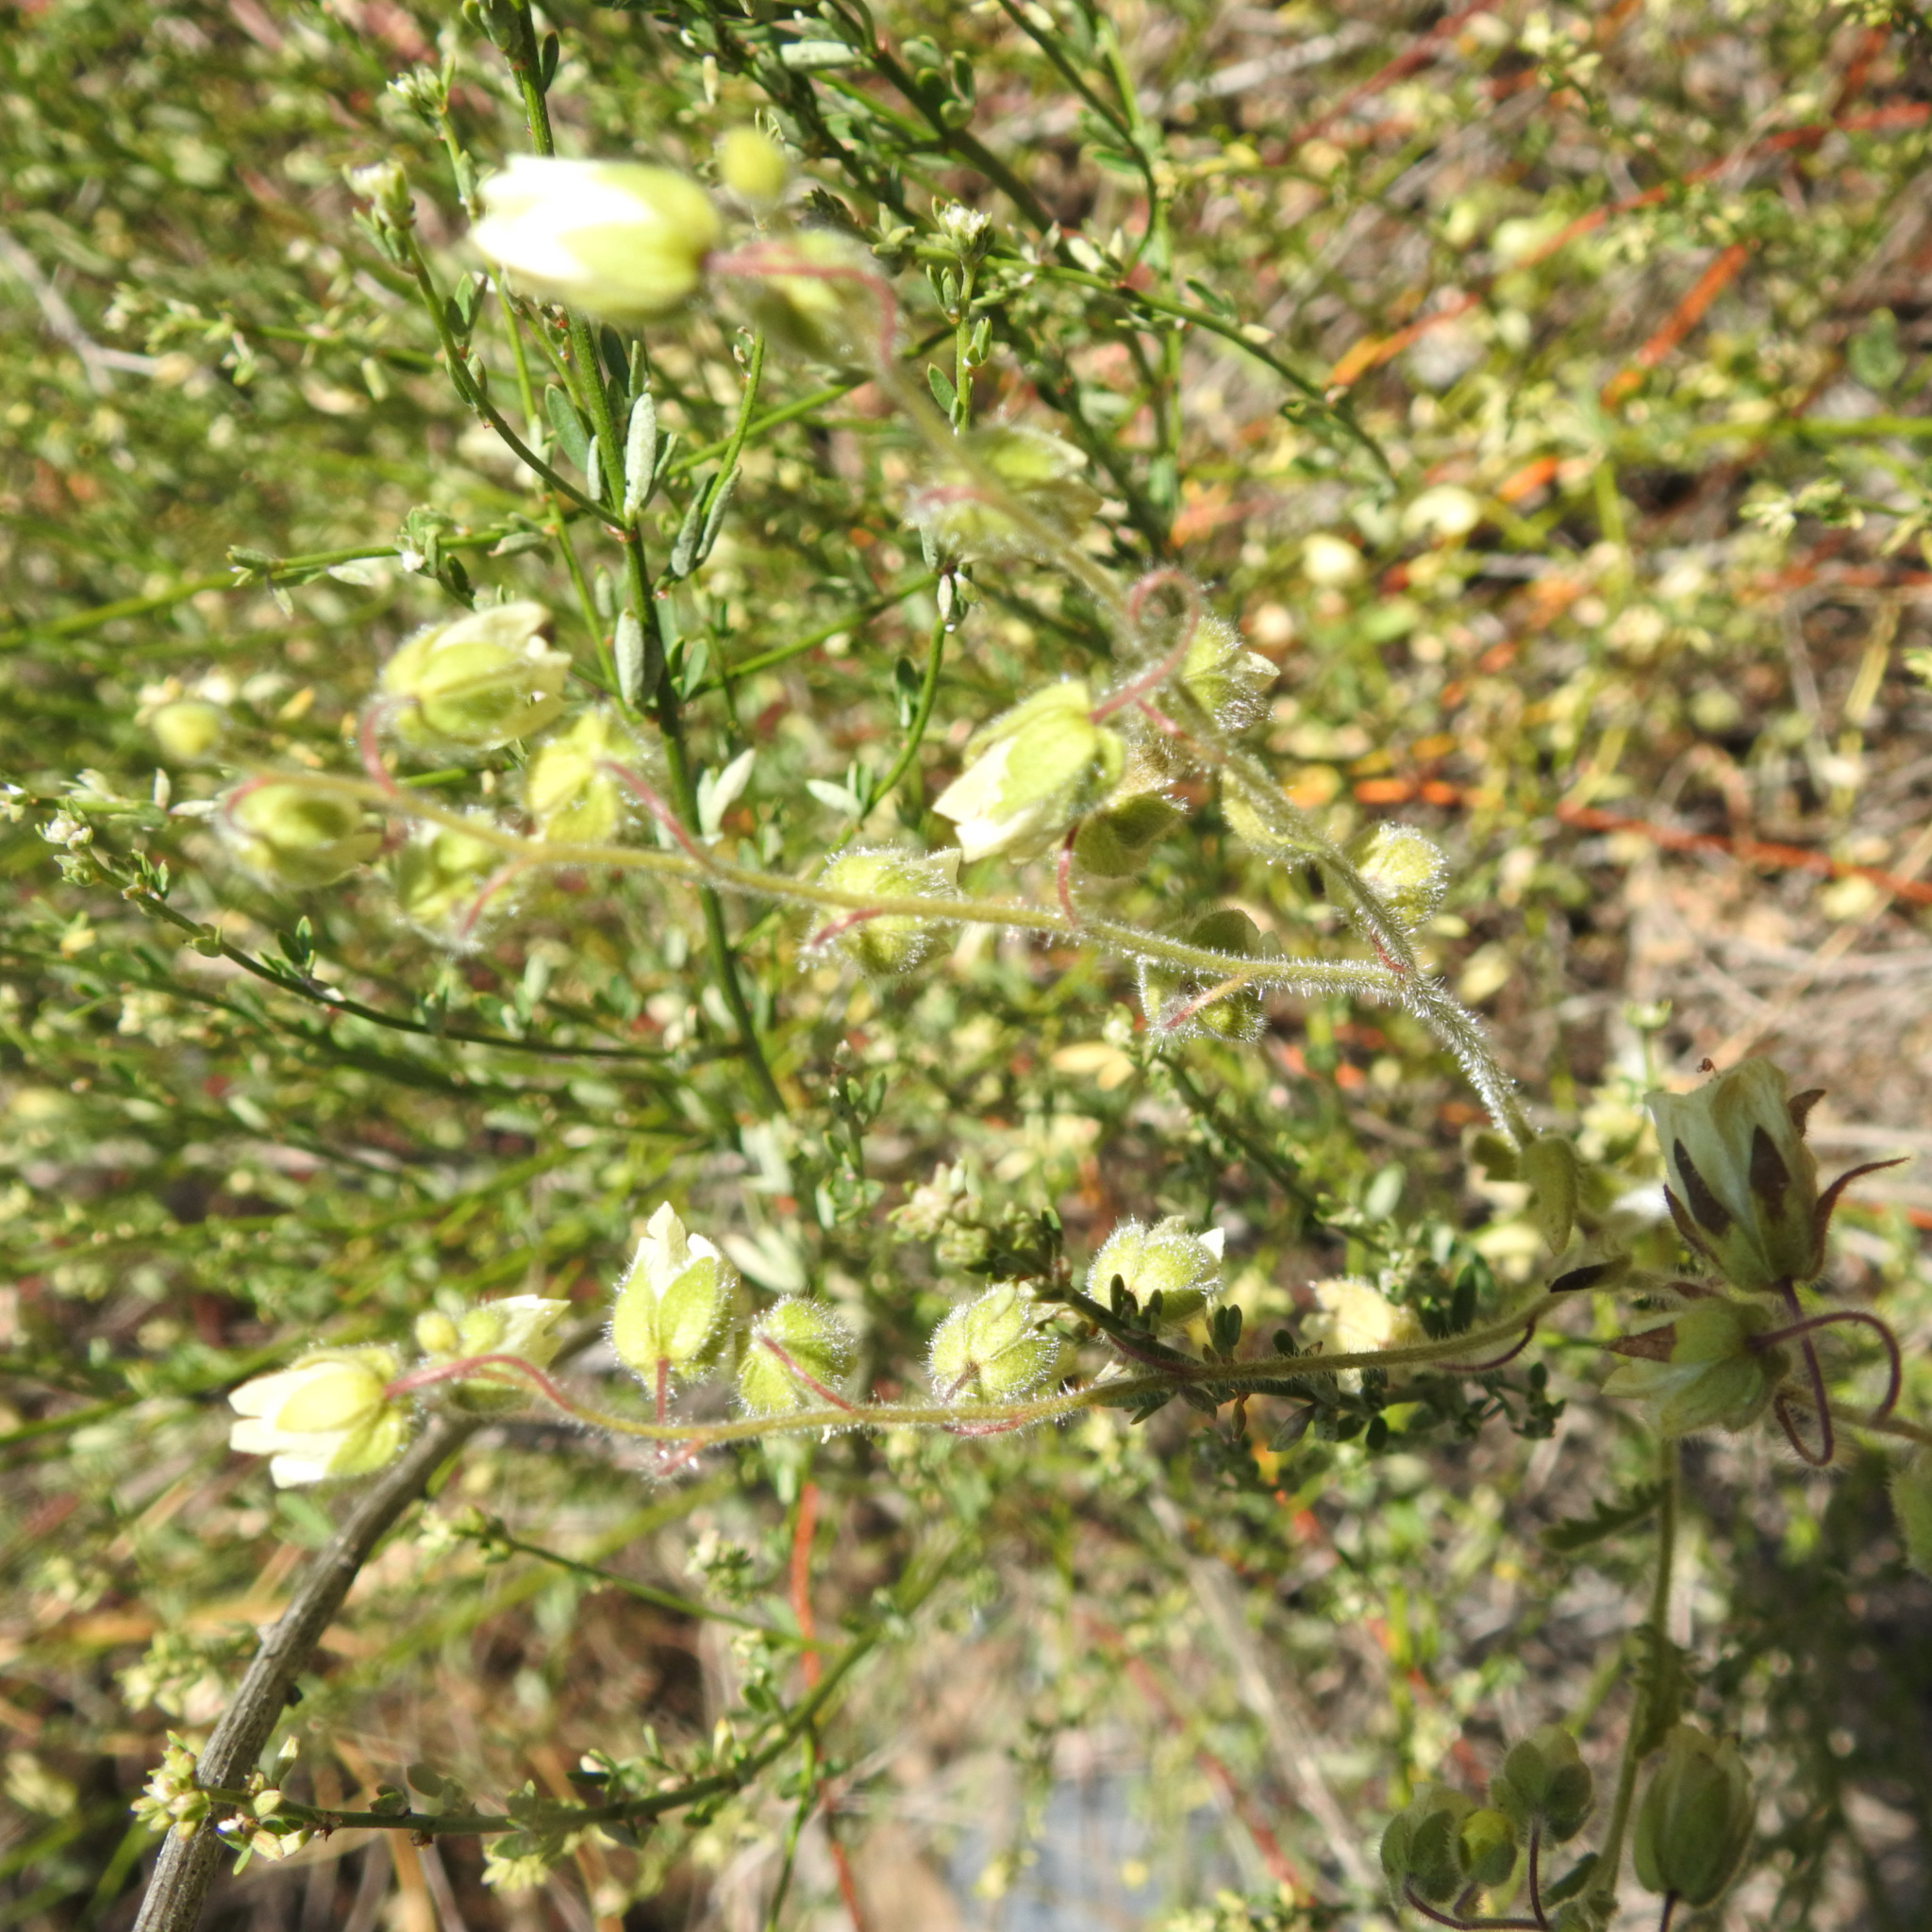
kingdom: Plantae
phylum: Tracheophyta
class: Magnoliopsida
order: Boraginales
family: Hydrophyllaceae
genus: Emmenanthe
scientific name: Emmenanthe penduliflora
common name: Whispering-bells
